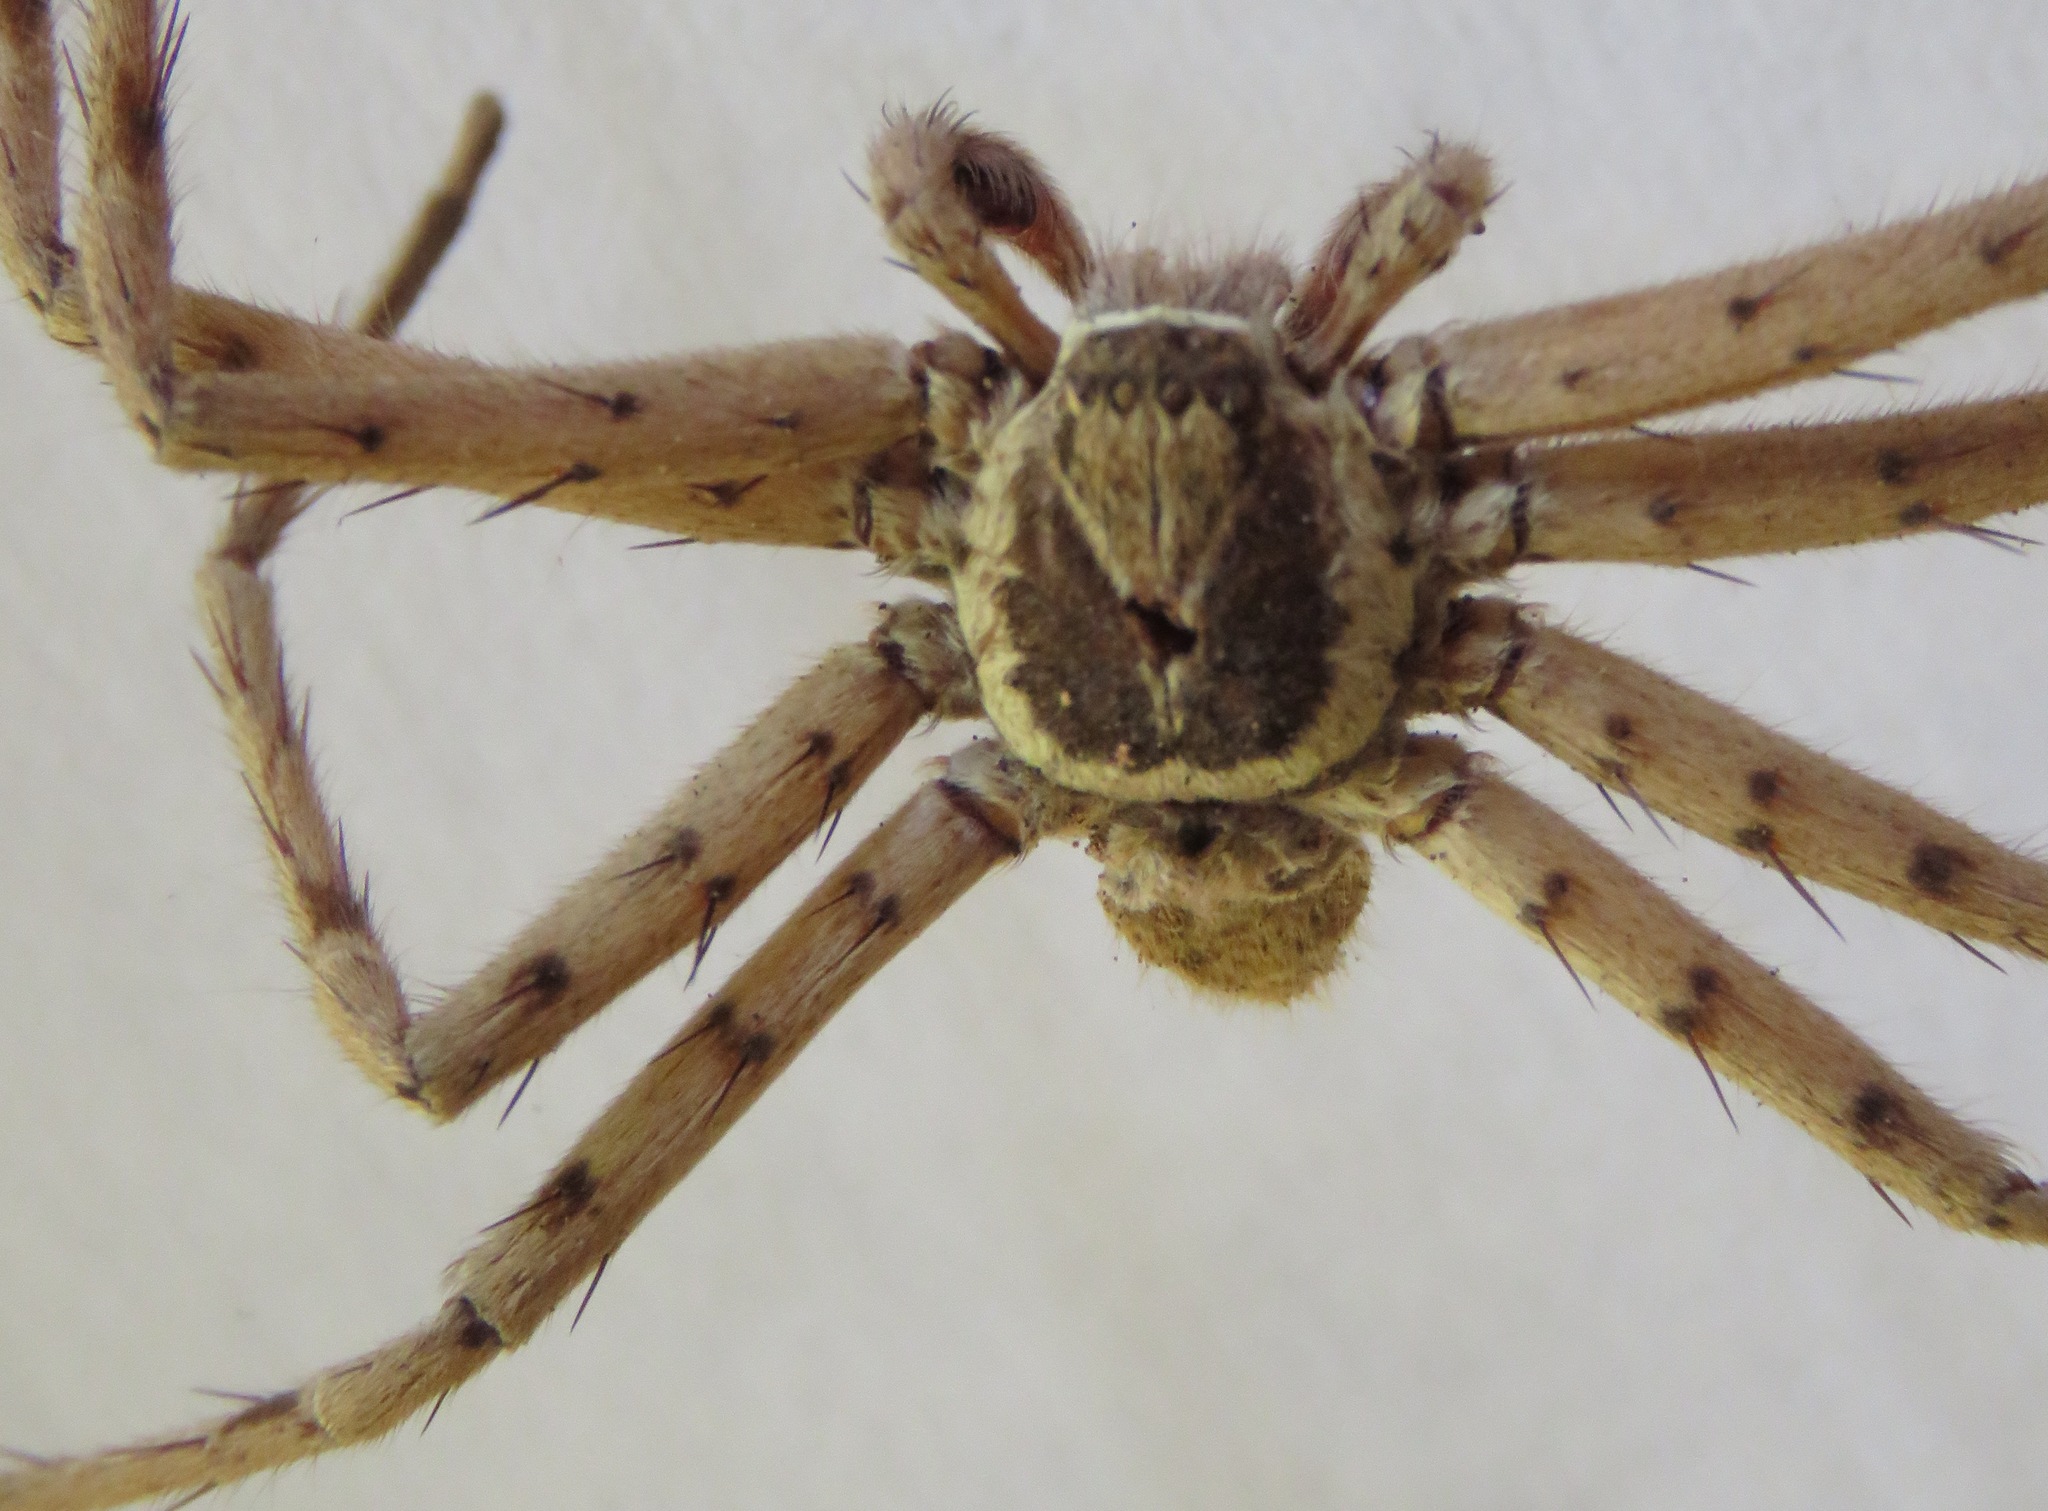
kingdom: Animalia
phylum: Arthropoda
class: Arachnida
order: Araneae
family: Sparassidae
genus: Heteropoda
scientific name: Heteropoda venatoria
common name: Huntsman spider
